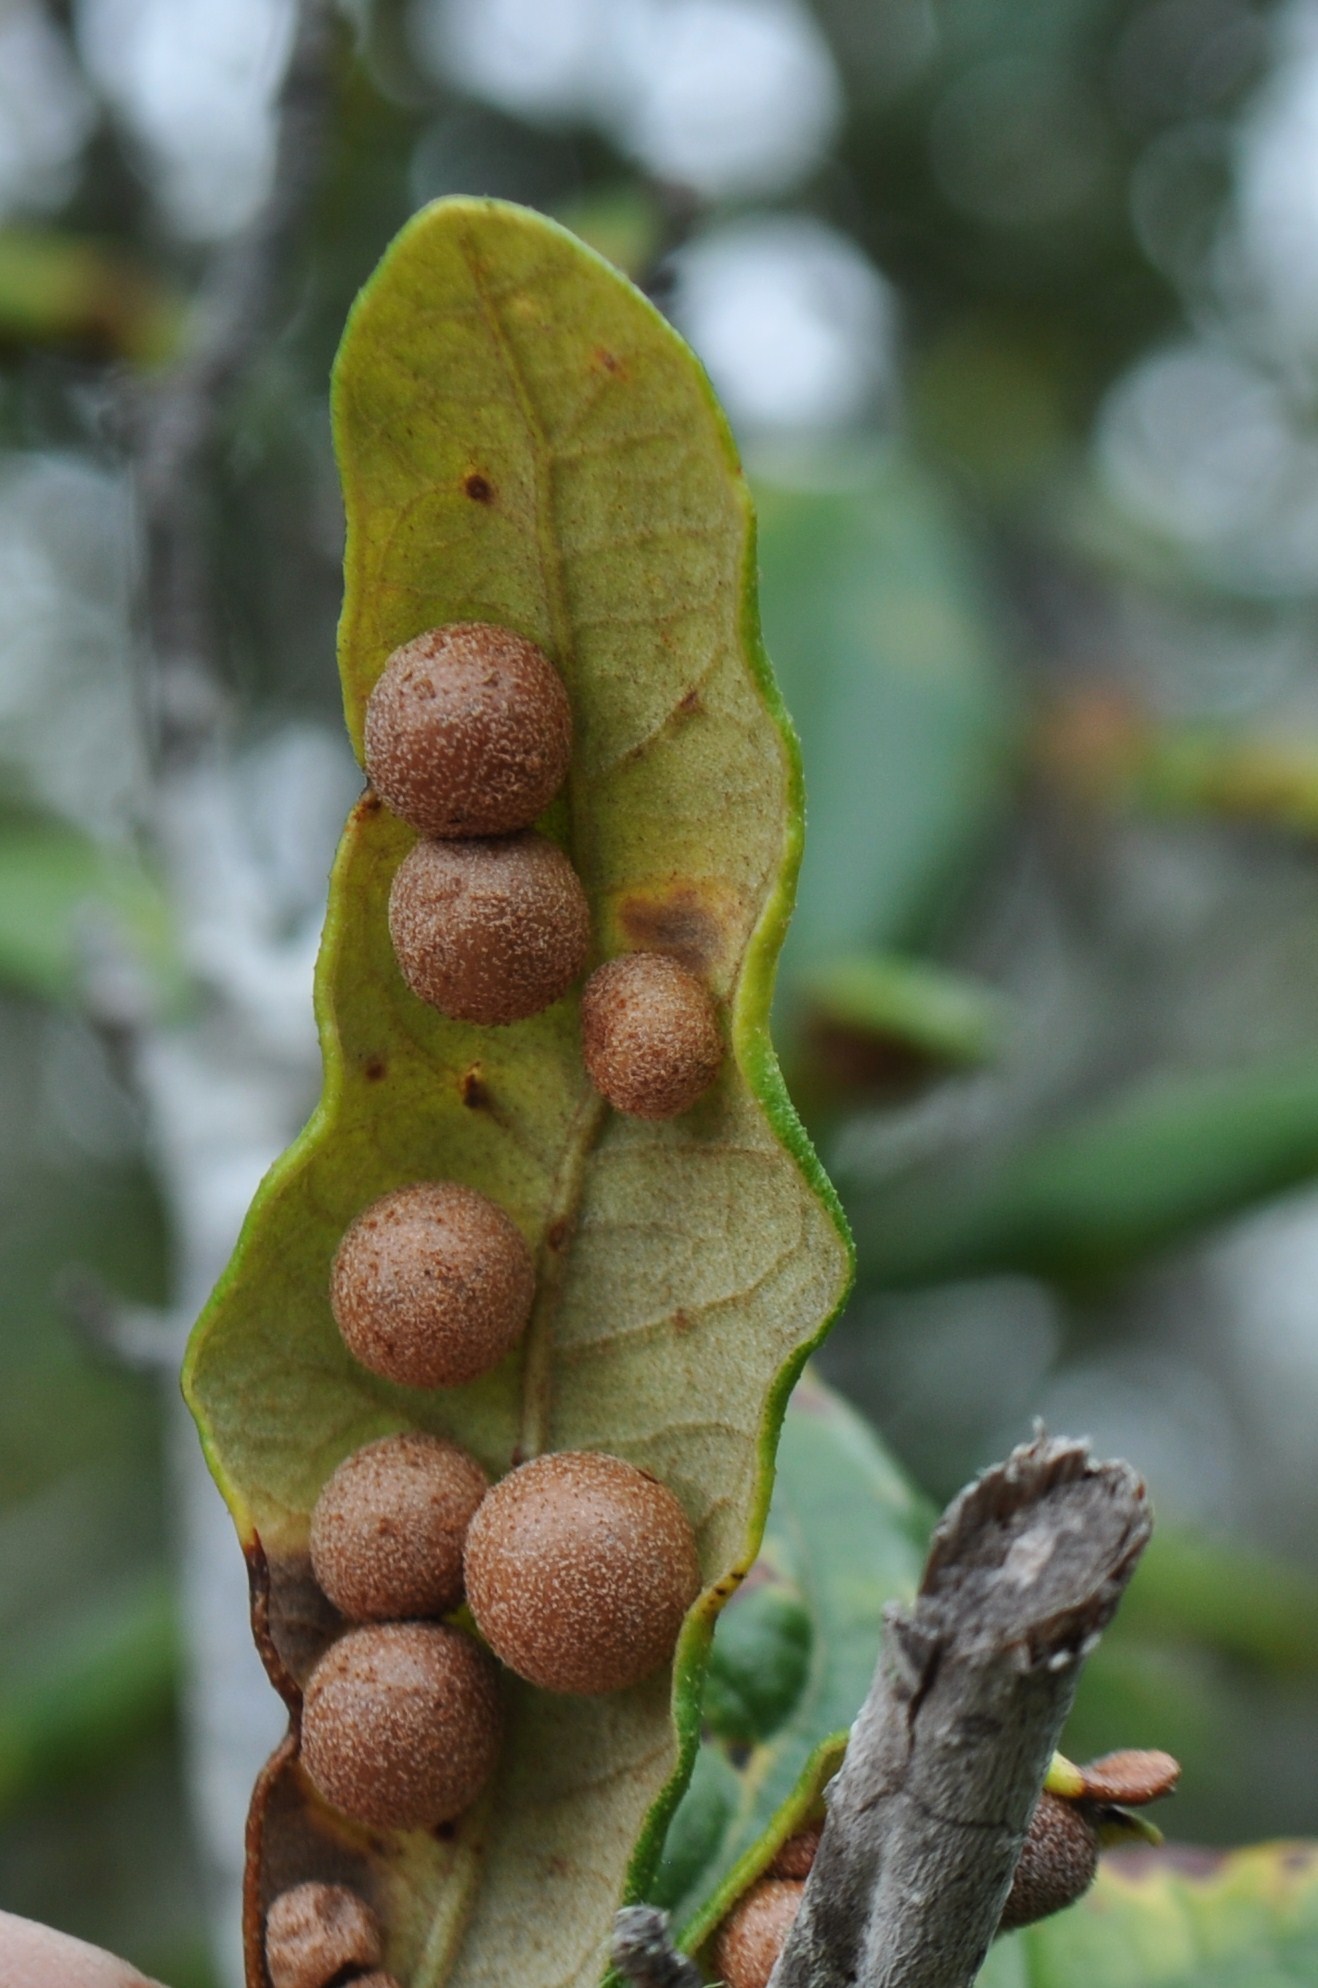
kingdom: Animalia
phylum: Arthropoda
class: Insecta
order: Hymenoptera
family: Cynipidae
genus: Belonocnema
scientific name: Belonocnema treatae
